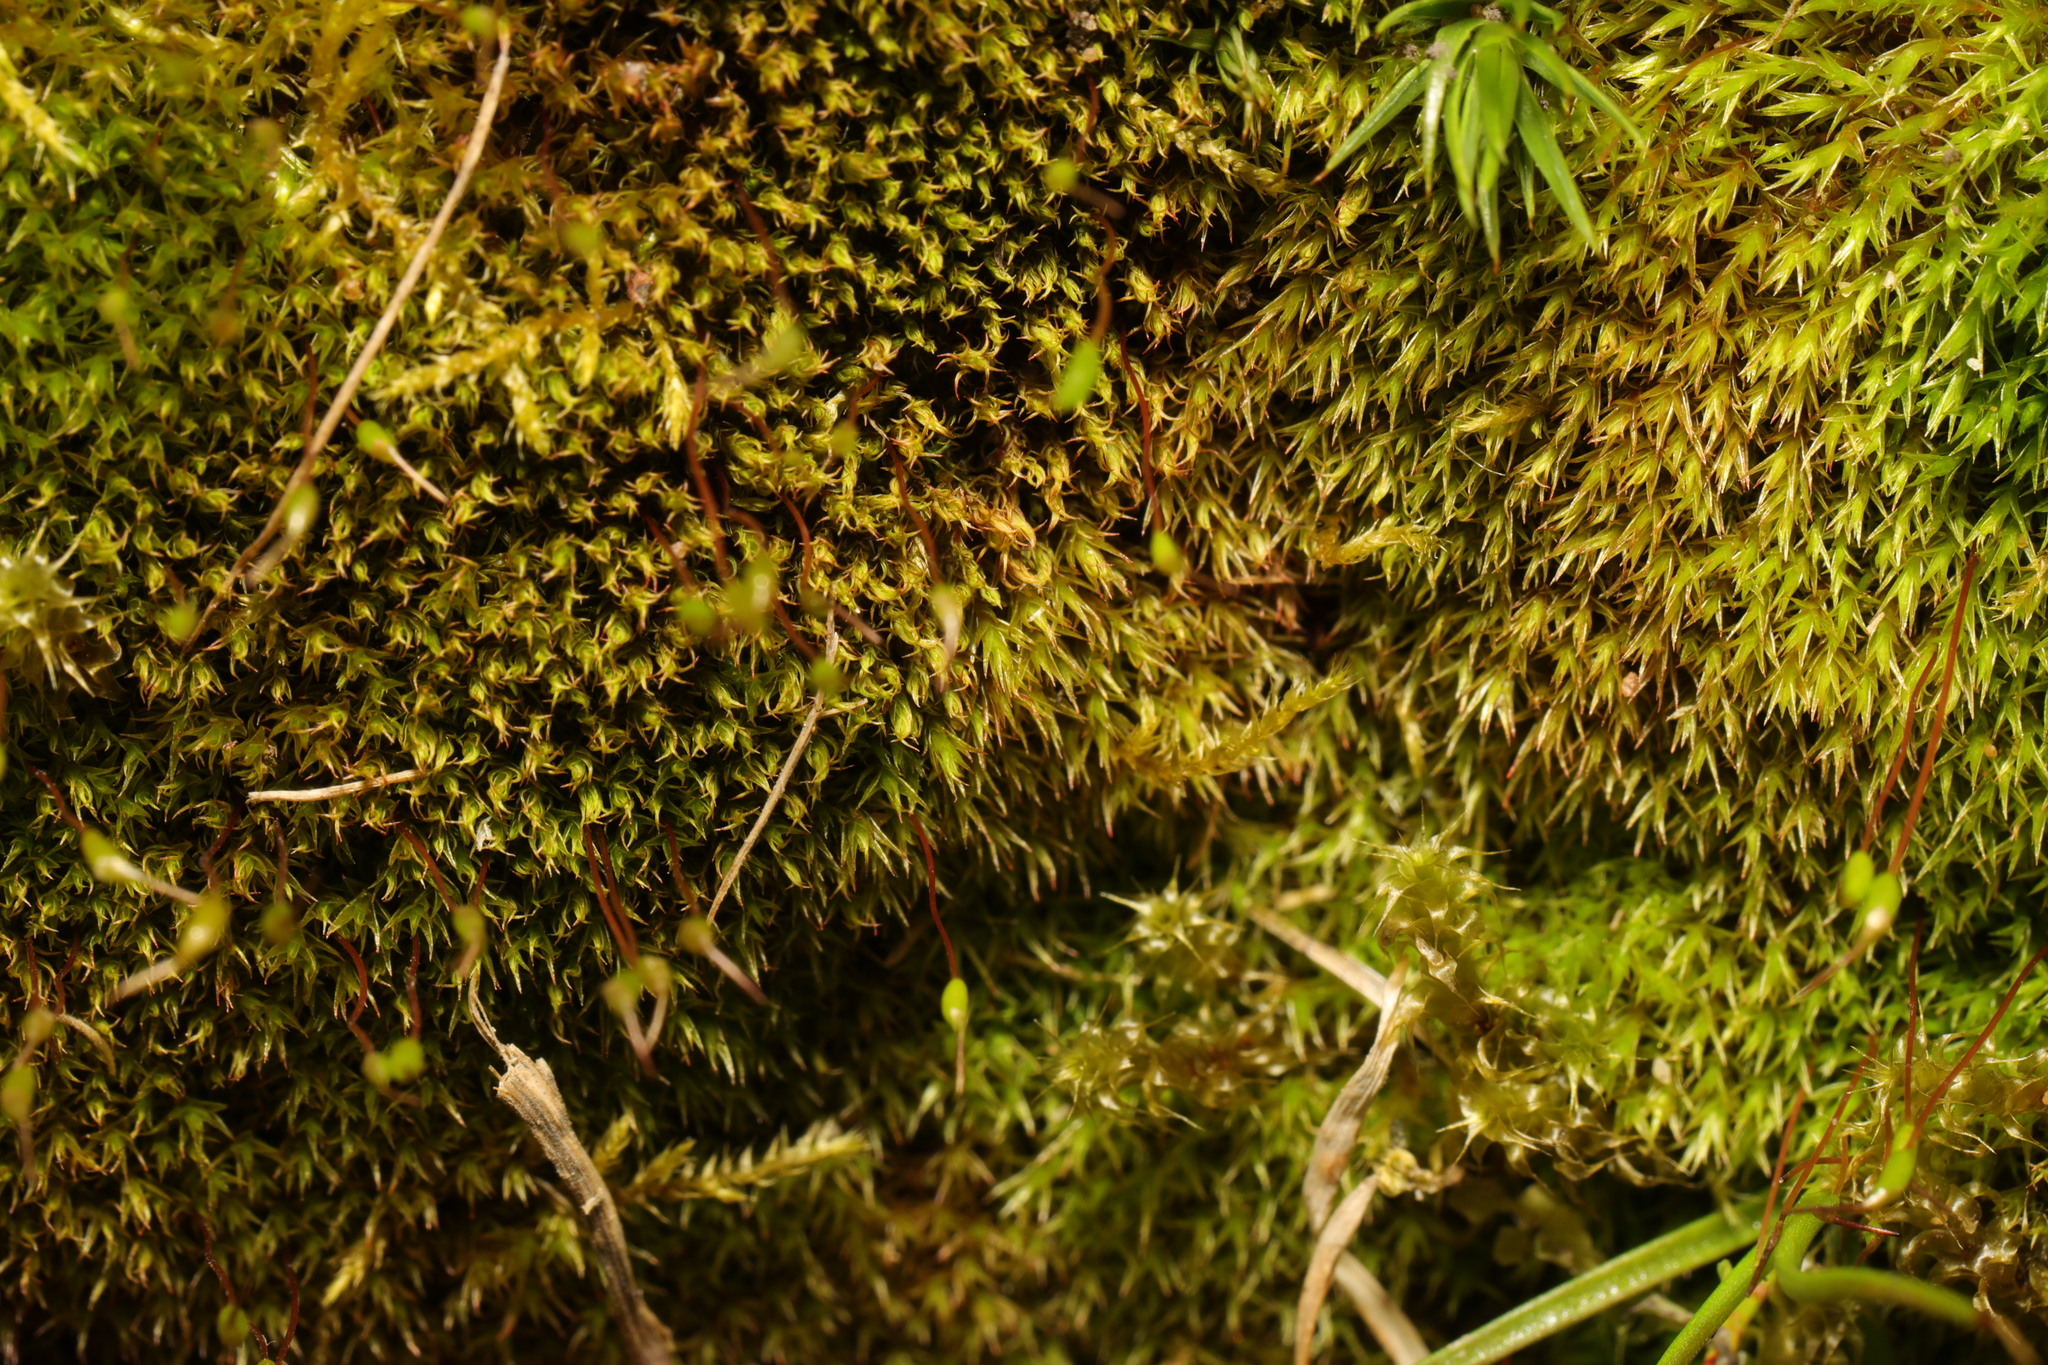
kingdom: Plantae
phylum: Bryophyta
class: Bryopsida
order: Dicranales
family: Ditrichaceae
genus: Ceratodon
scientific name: Ceratodon purpureus
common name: Redshank
